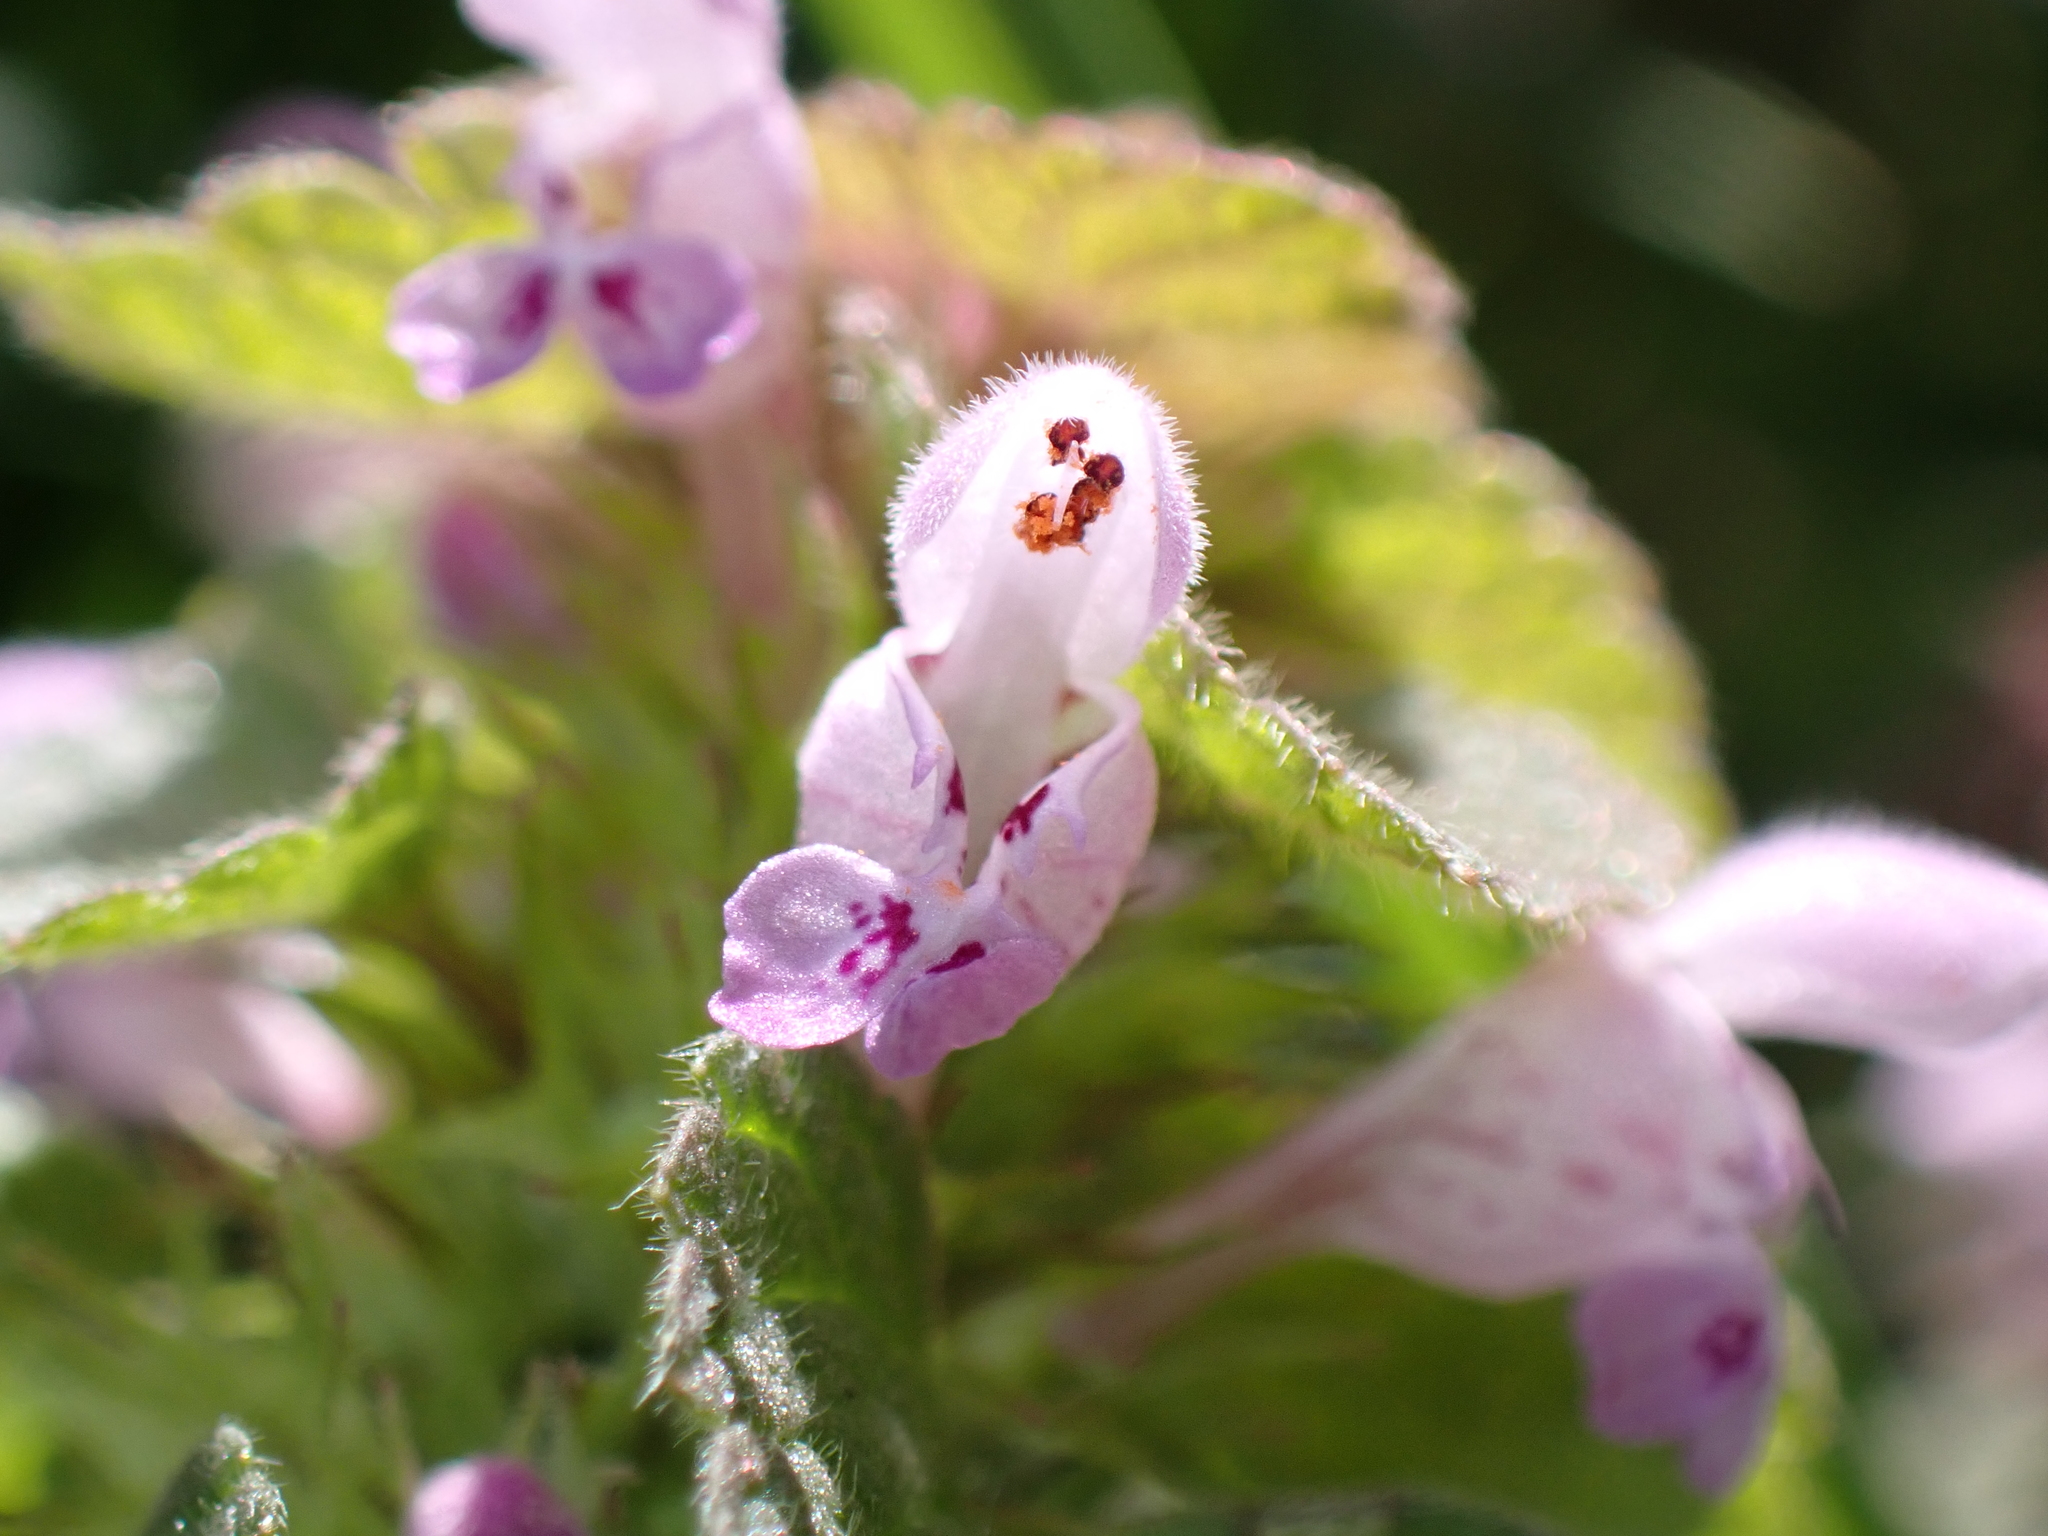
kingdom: Plantae
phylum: Tracheophyta
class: Magnoliopsida
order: Lamiales
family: Lamiaceae
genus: Lamium
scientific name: Lamium purpureum
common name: Red dead-nettle
